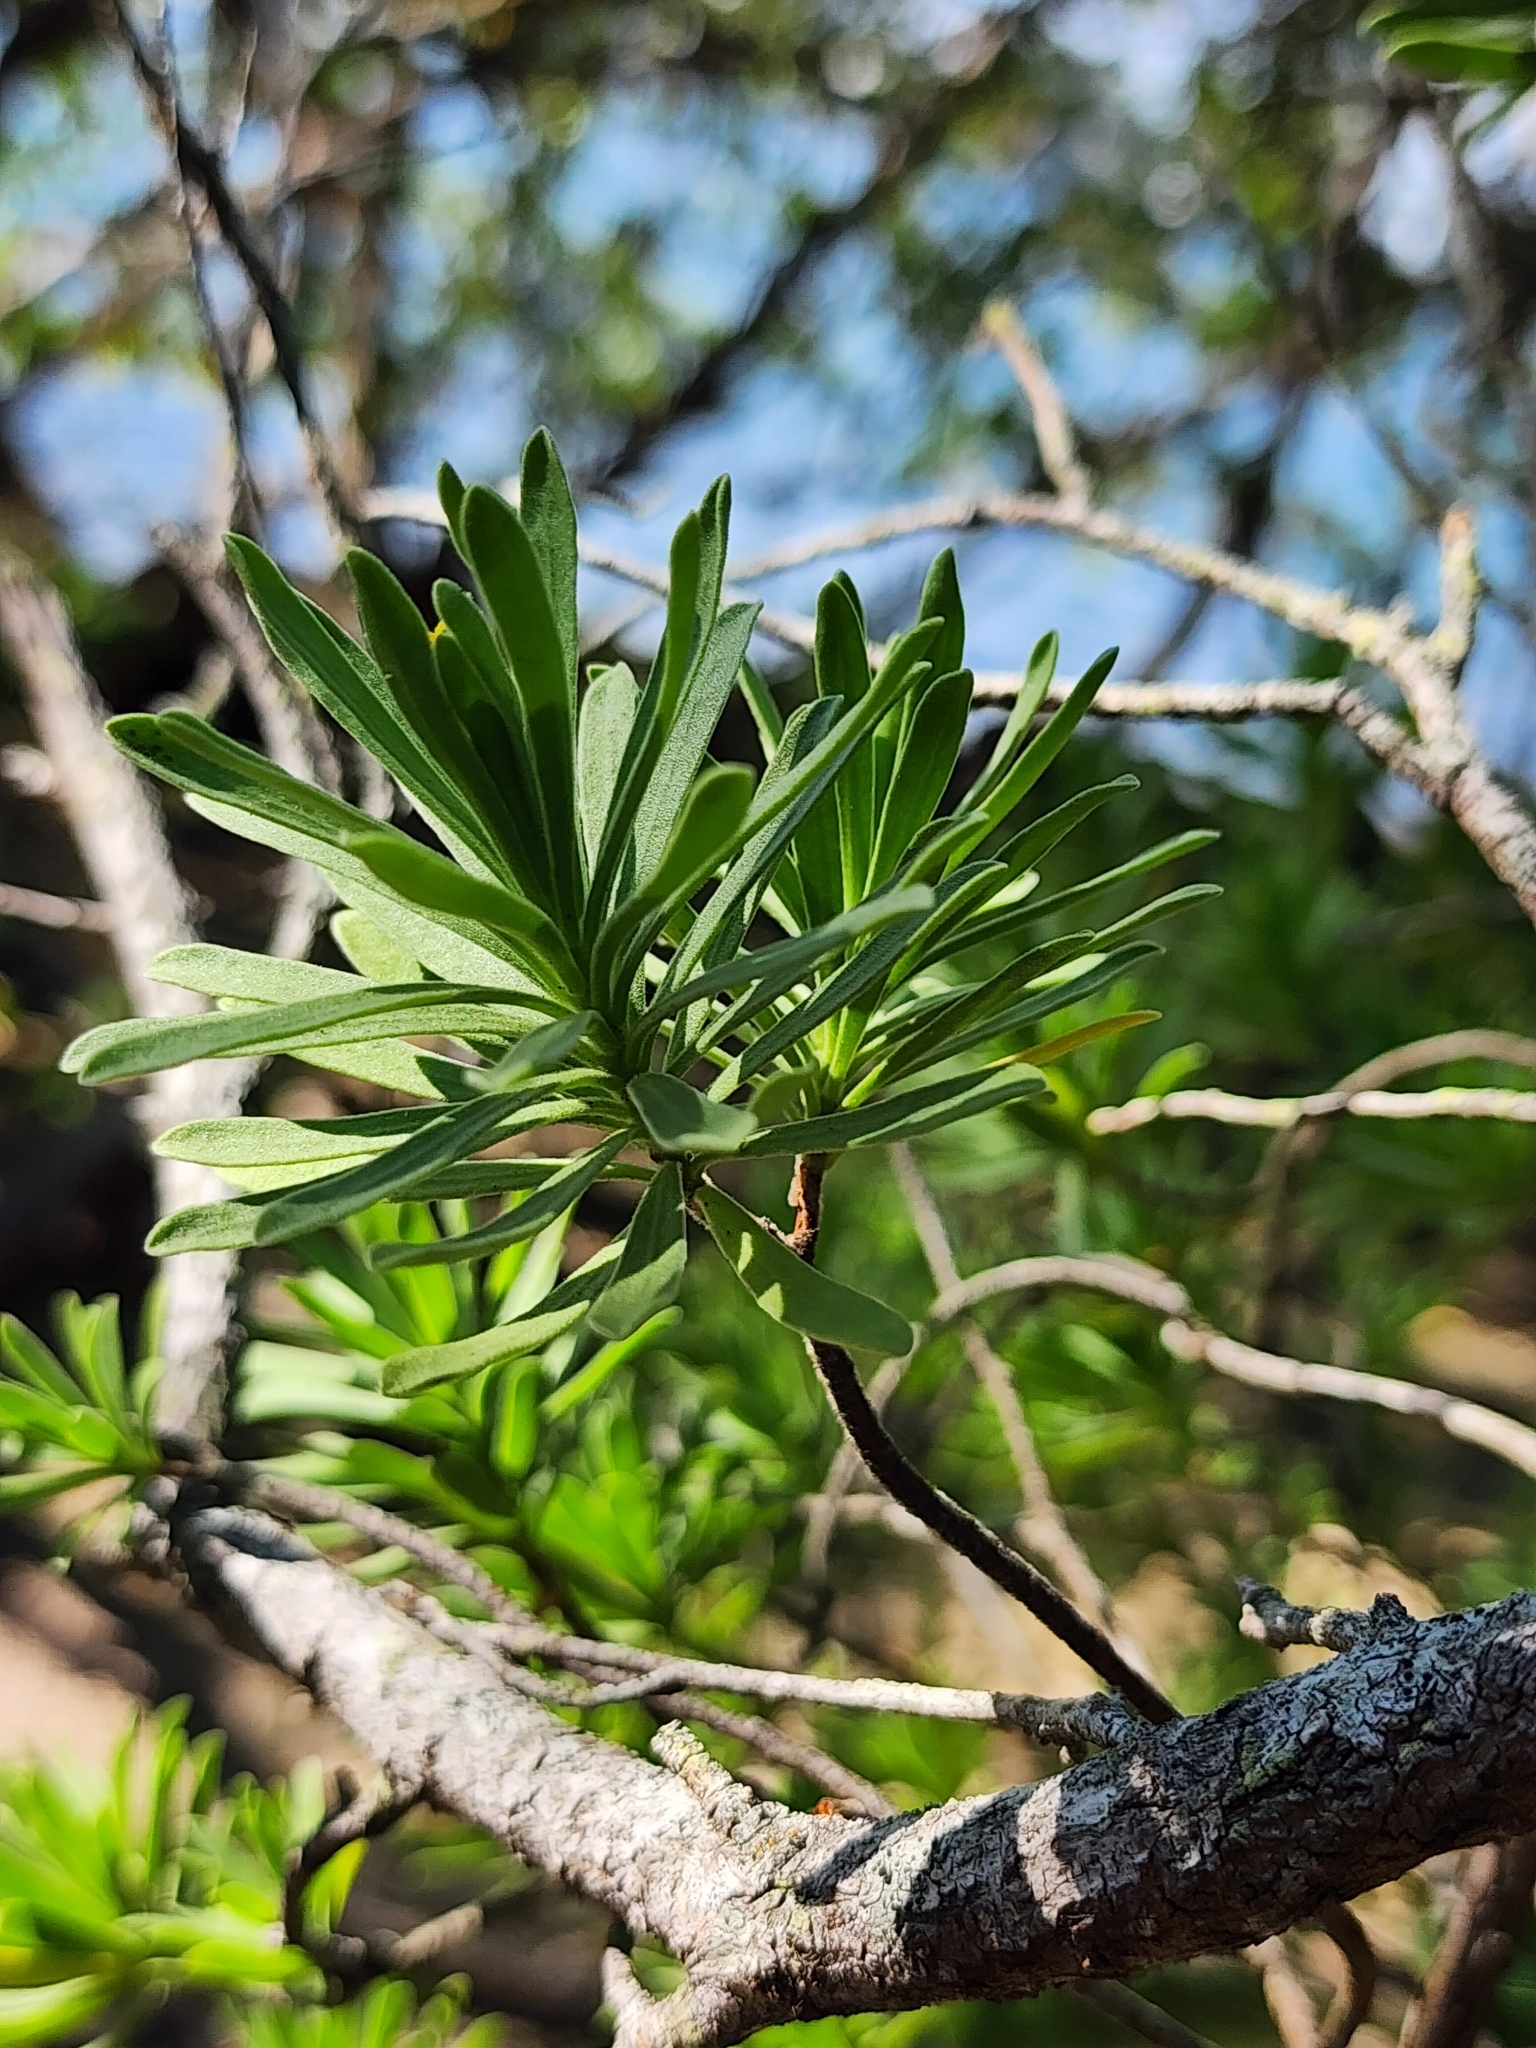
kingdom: Plantae
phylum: Tracheophyta
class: Magnoliopsida
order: Fabales
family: Surianaceae
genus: Suriana
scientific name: Suriana maritima
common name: Bay-cedar
